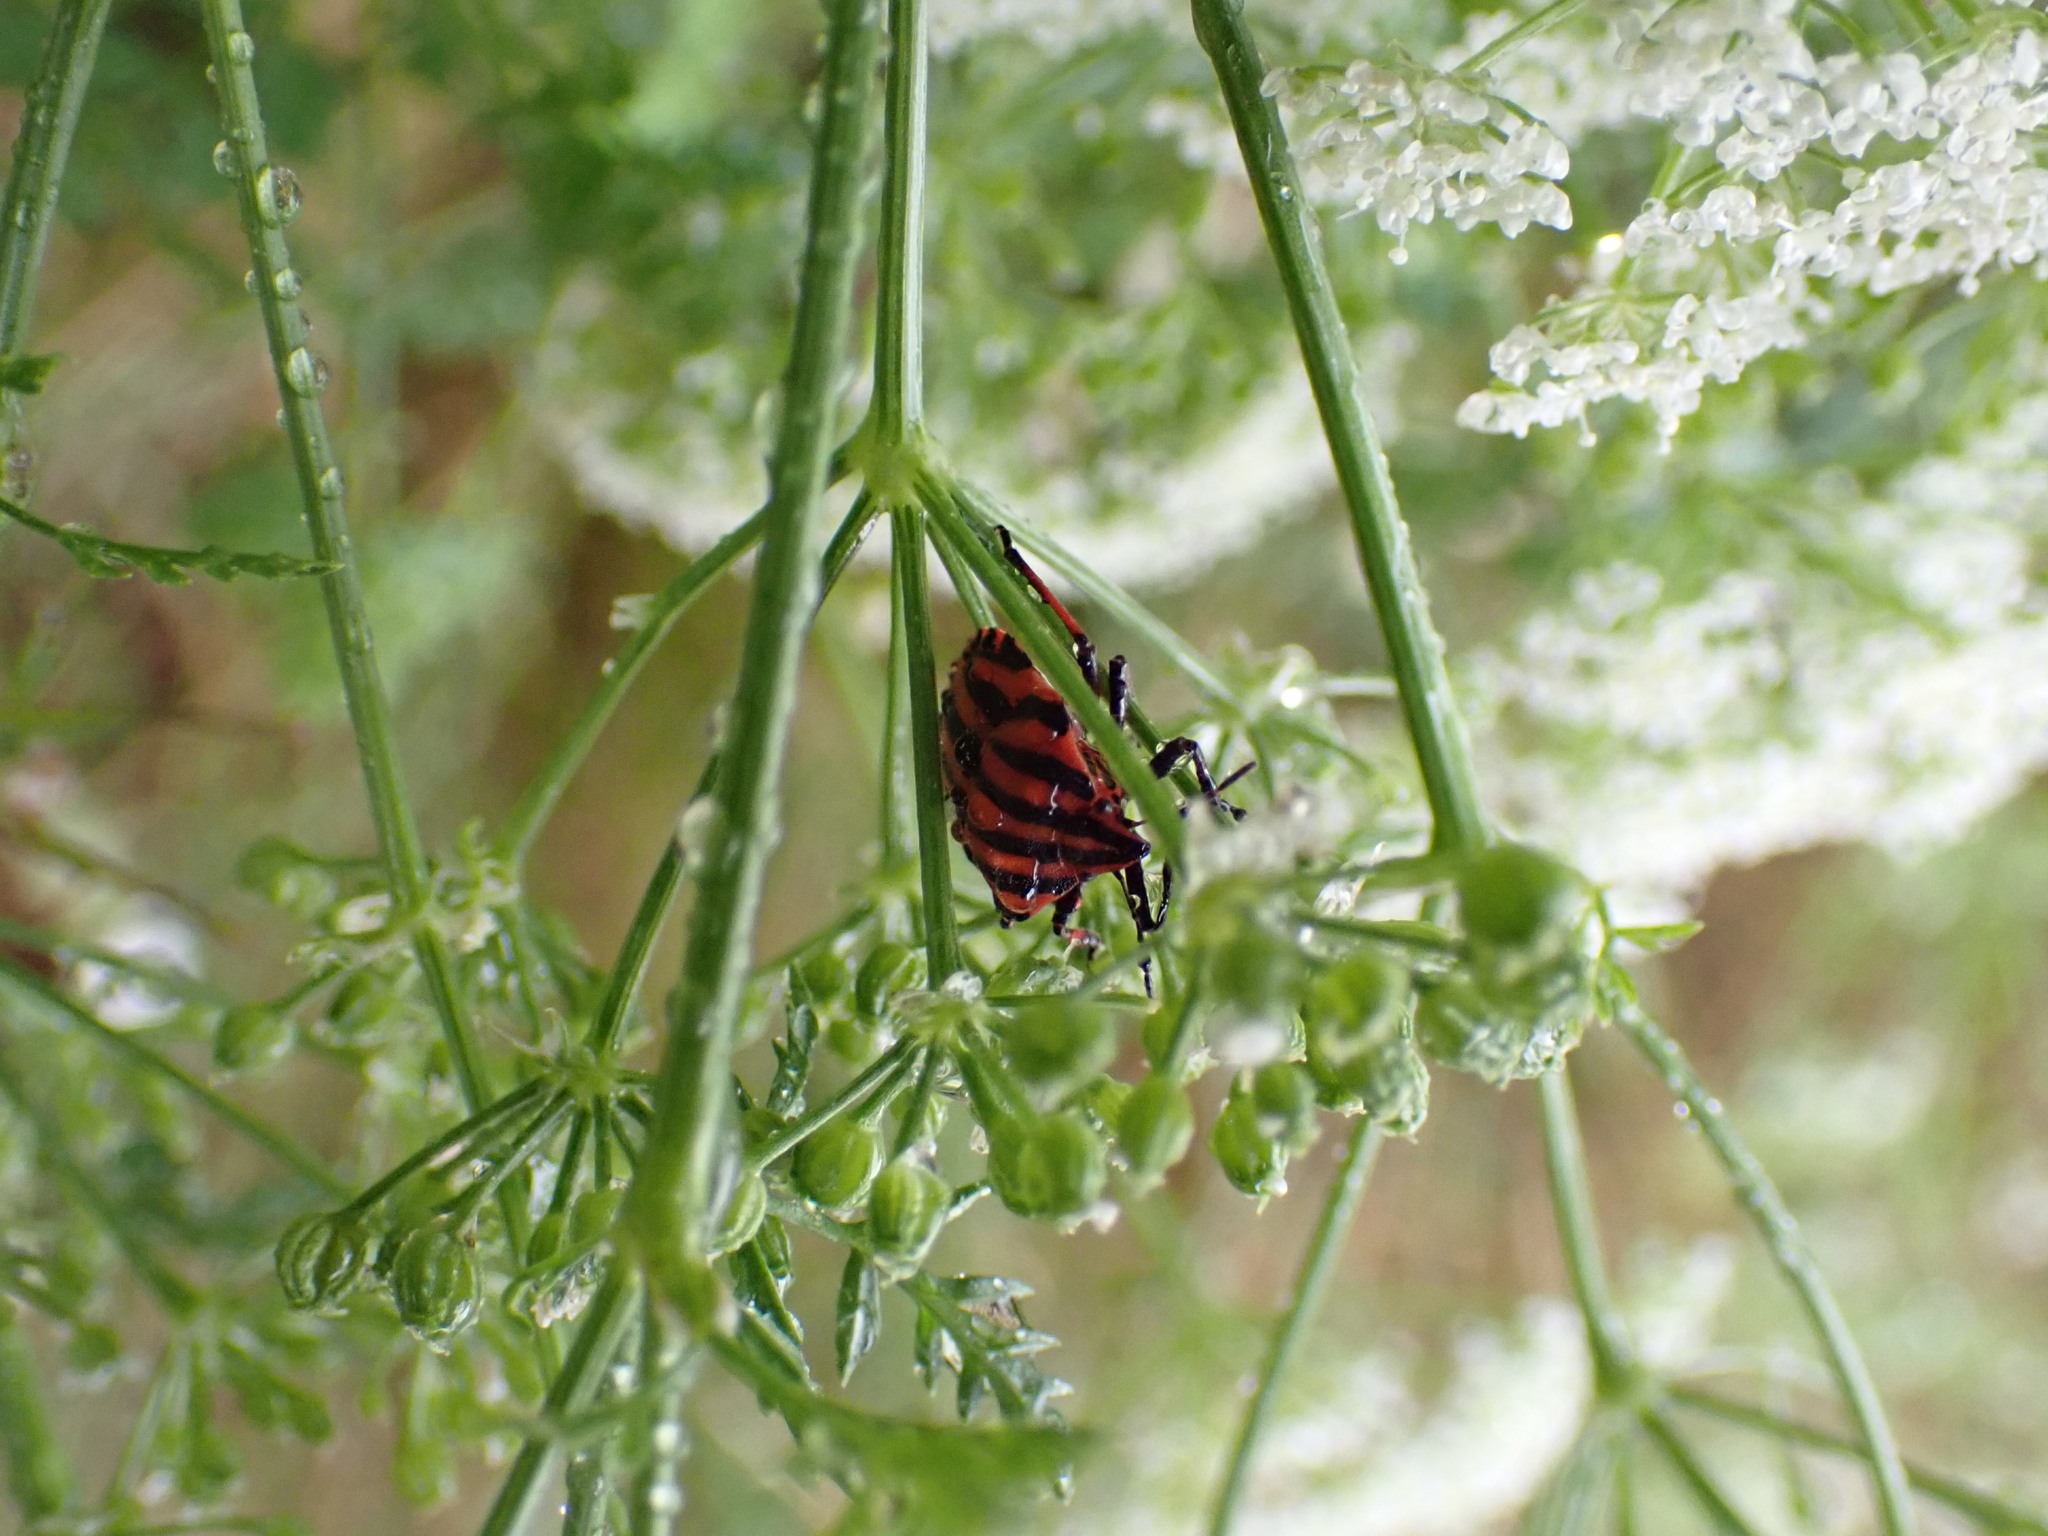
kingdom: Animalia
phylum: Arthropoda
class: Insecta
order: Hemiptera
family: Pentatomidae
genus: Graphosoma
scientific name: Graphosoma italicum
